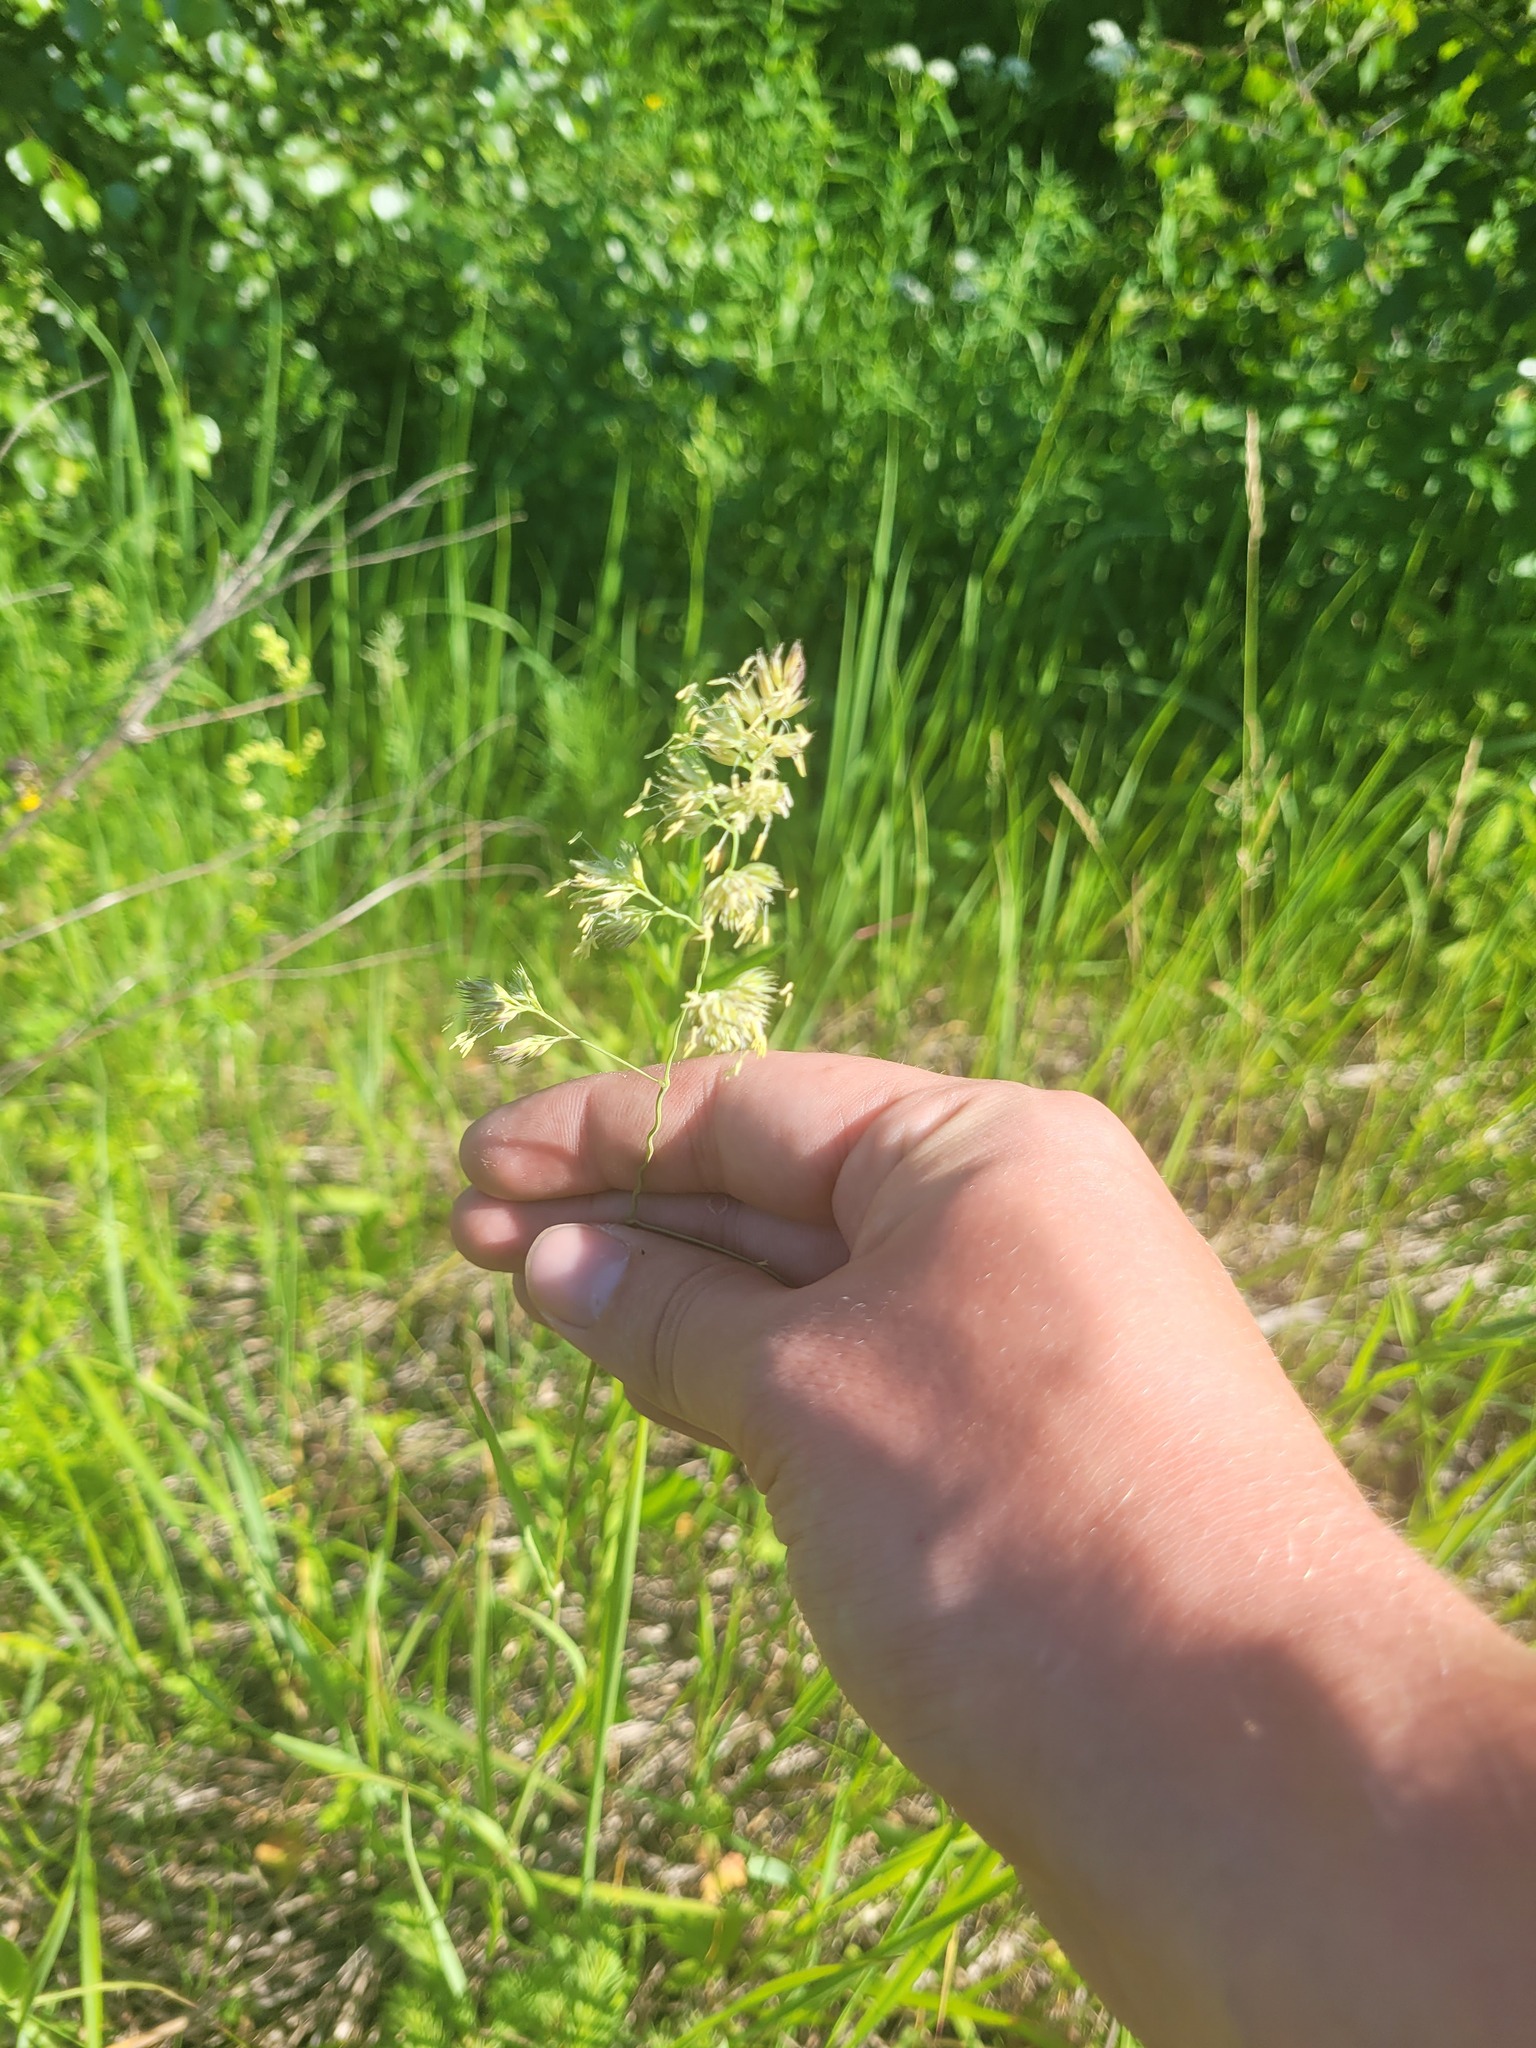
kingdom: Plantae
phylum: Tracheophyta
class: Liliopsida
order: Poales
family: Poaceae
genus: Dactylis
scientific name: Dactylis glomerata
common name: Orchardgrass
